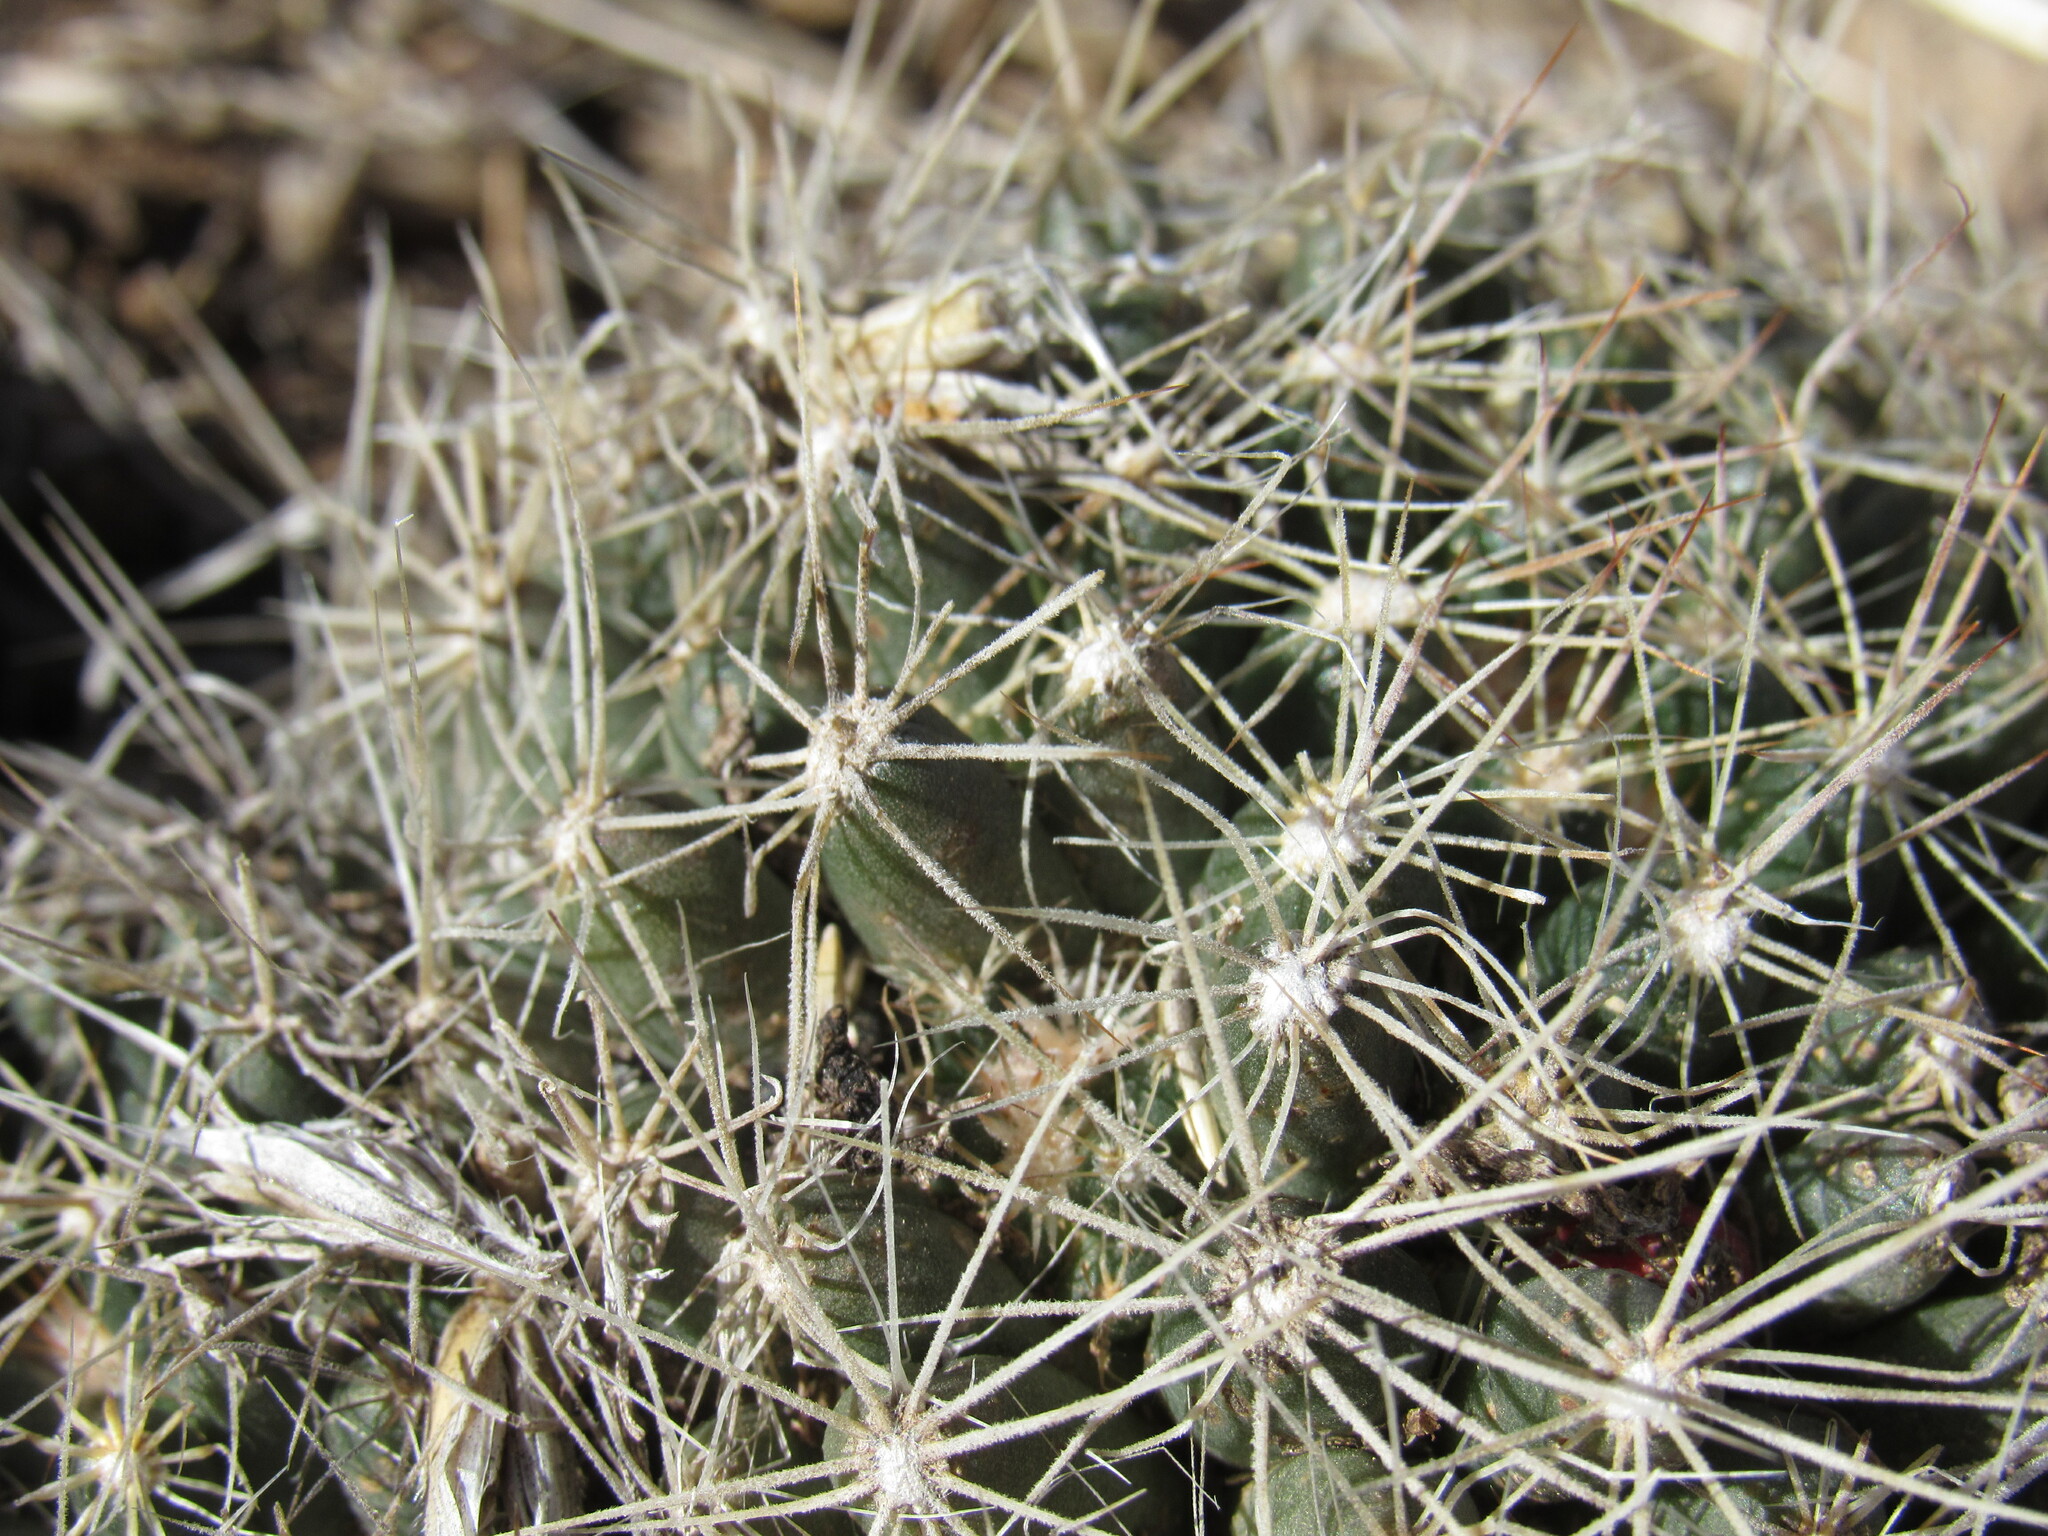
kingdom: Plantae
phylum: Tracheophyta
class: Magnoliopsida
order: Caryophyllales
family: Cactaceae
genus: Pelecyphora
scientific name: Pelecyphora missouriensis
